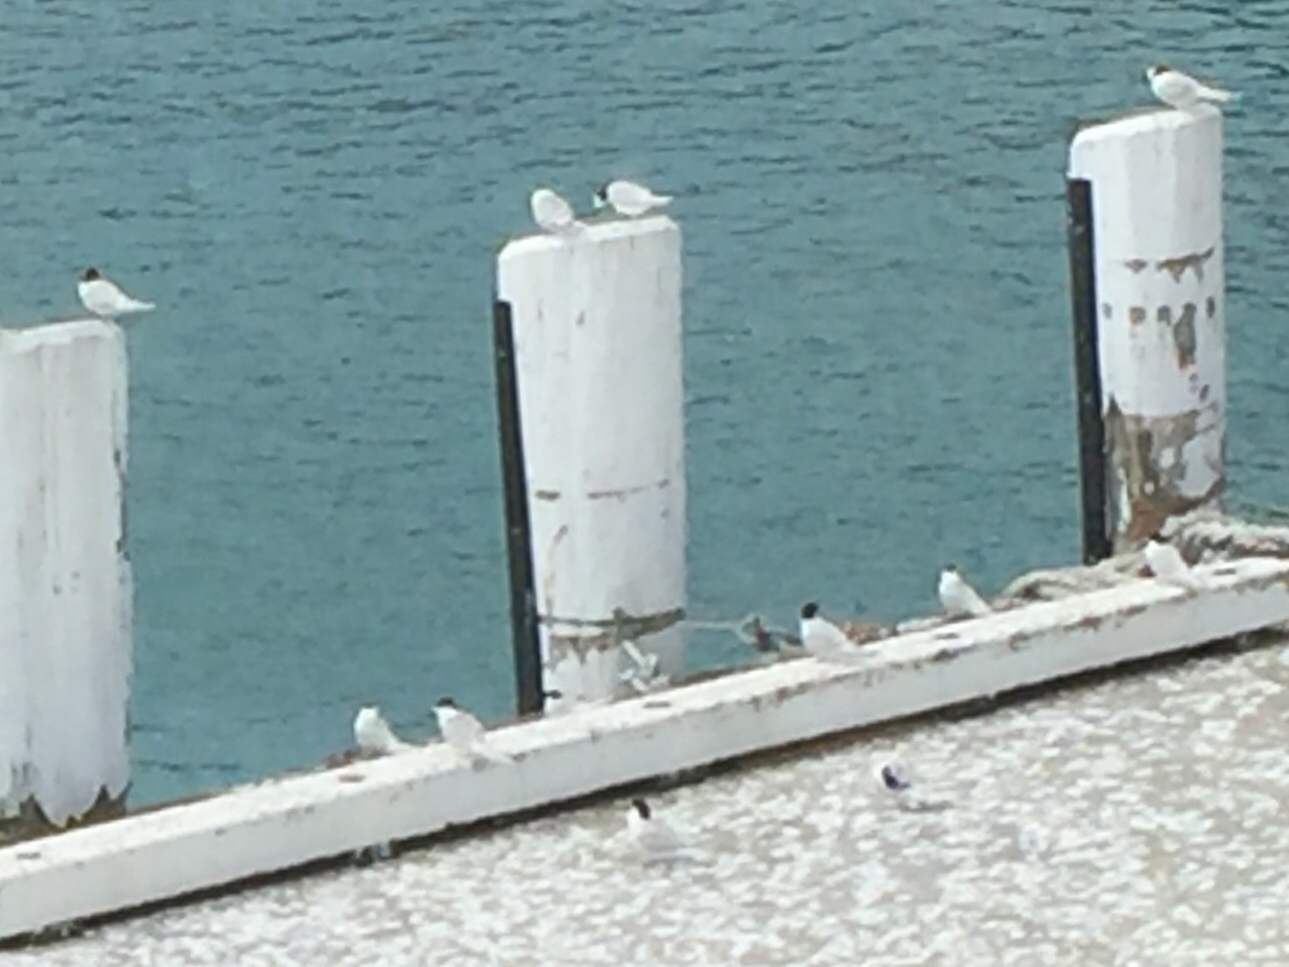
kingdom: Animalia
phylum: Chordata
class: Aves
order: Charadriiformes
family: Laridae
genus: Sterna
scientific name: Sterna striata
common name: White-fronted tern
